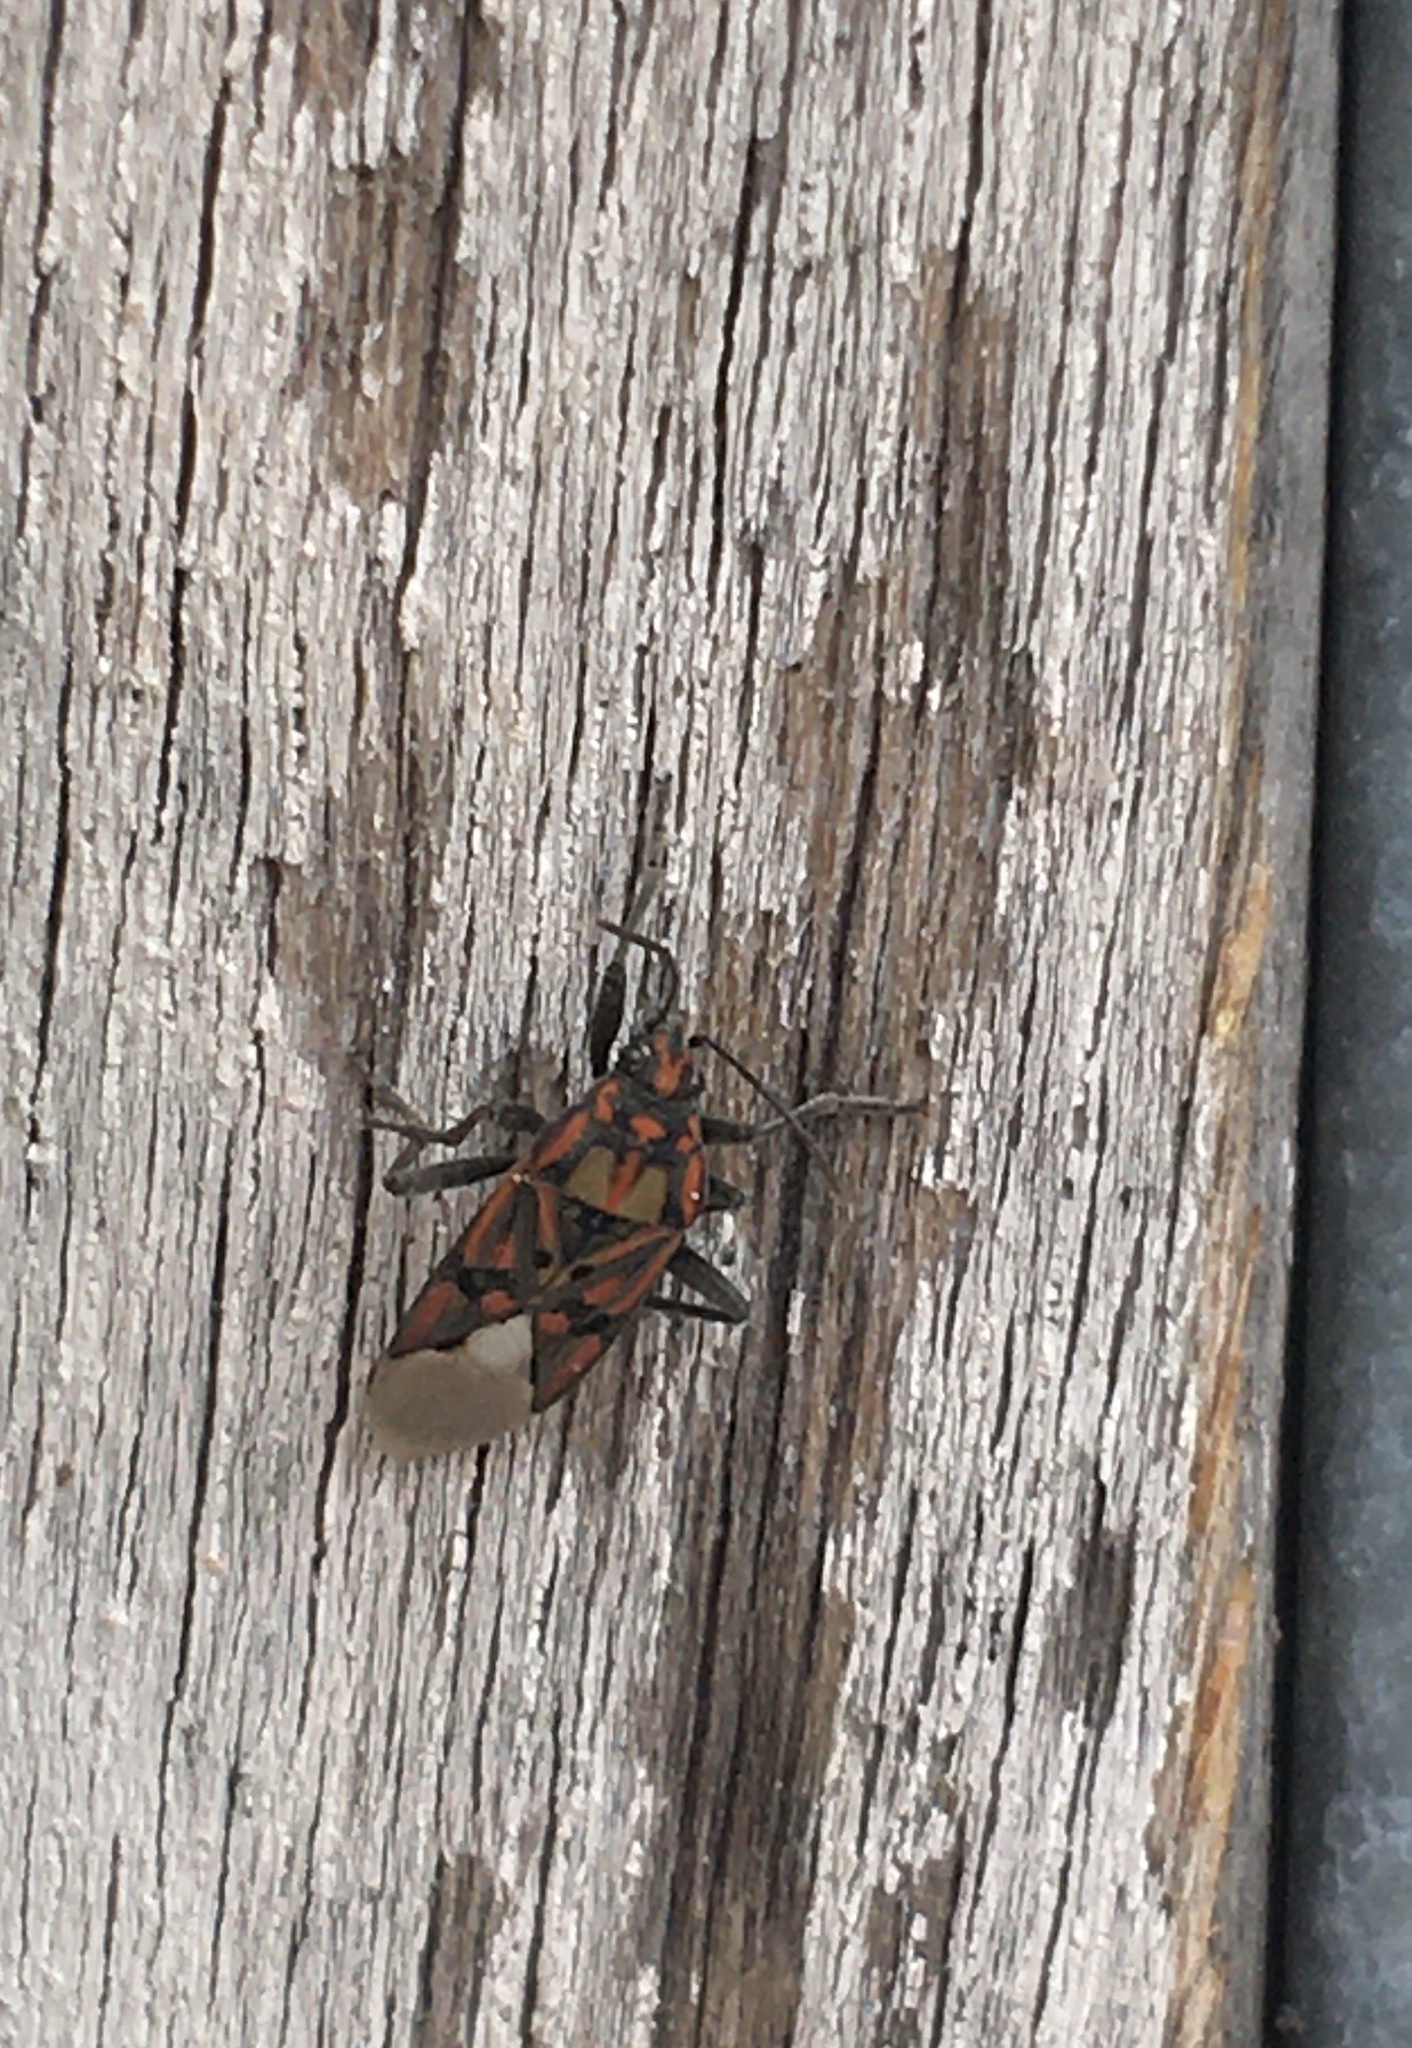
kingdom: Animalia
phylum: Arthropoda
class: Insecta
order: Hemiptera
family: Lygaeidae
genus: Spilostethus
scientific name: Spilostethus pandurus
